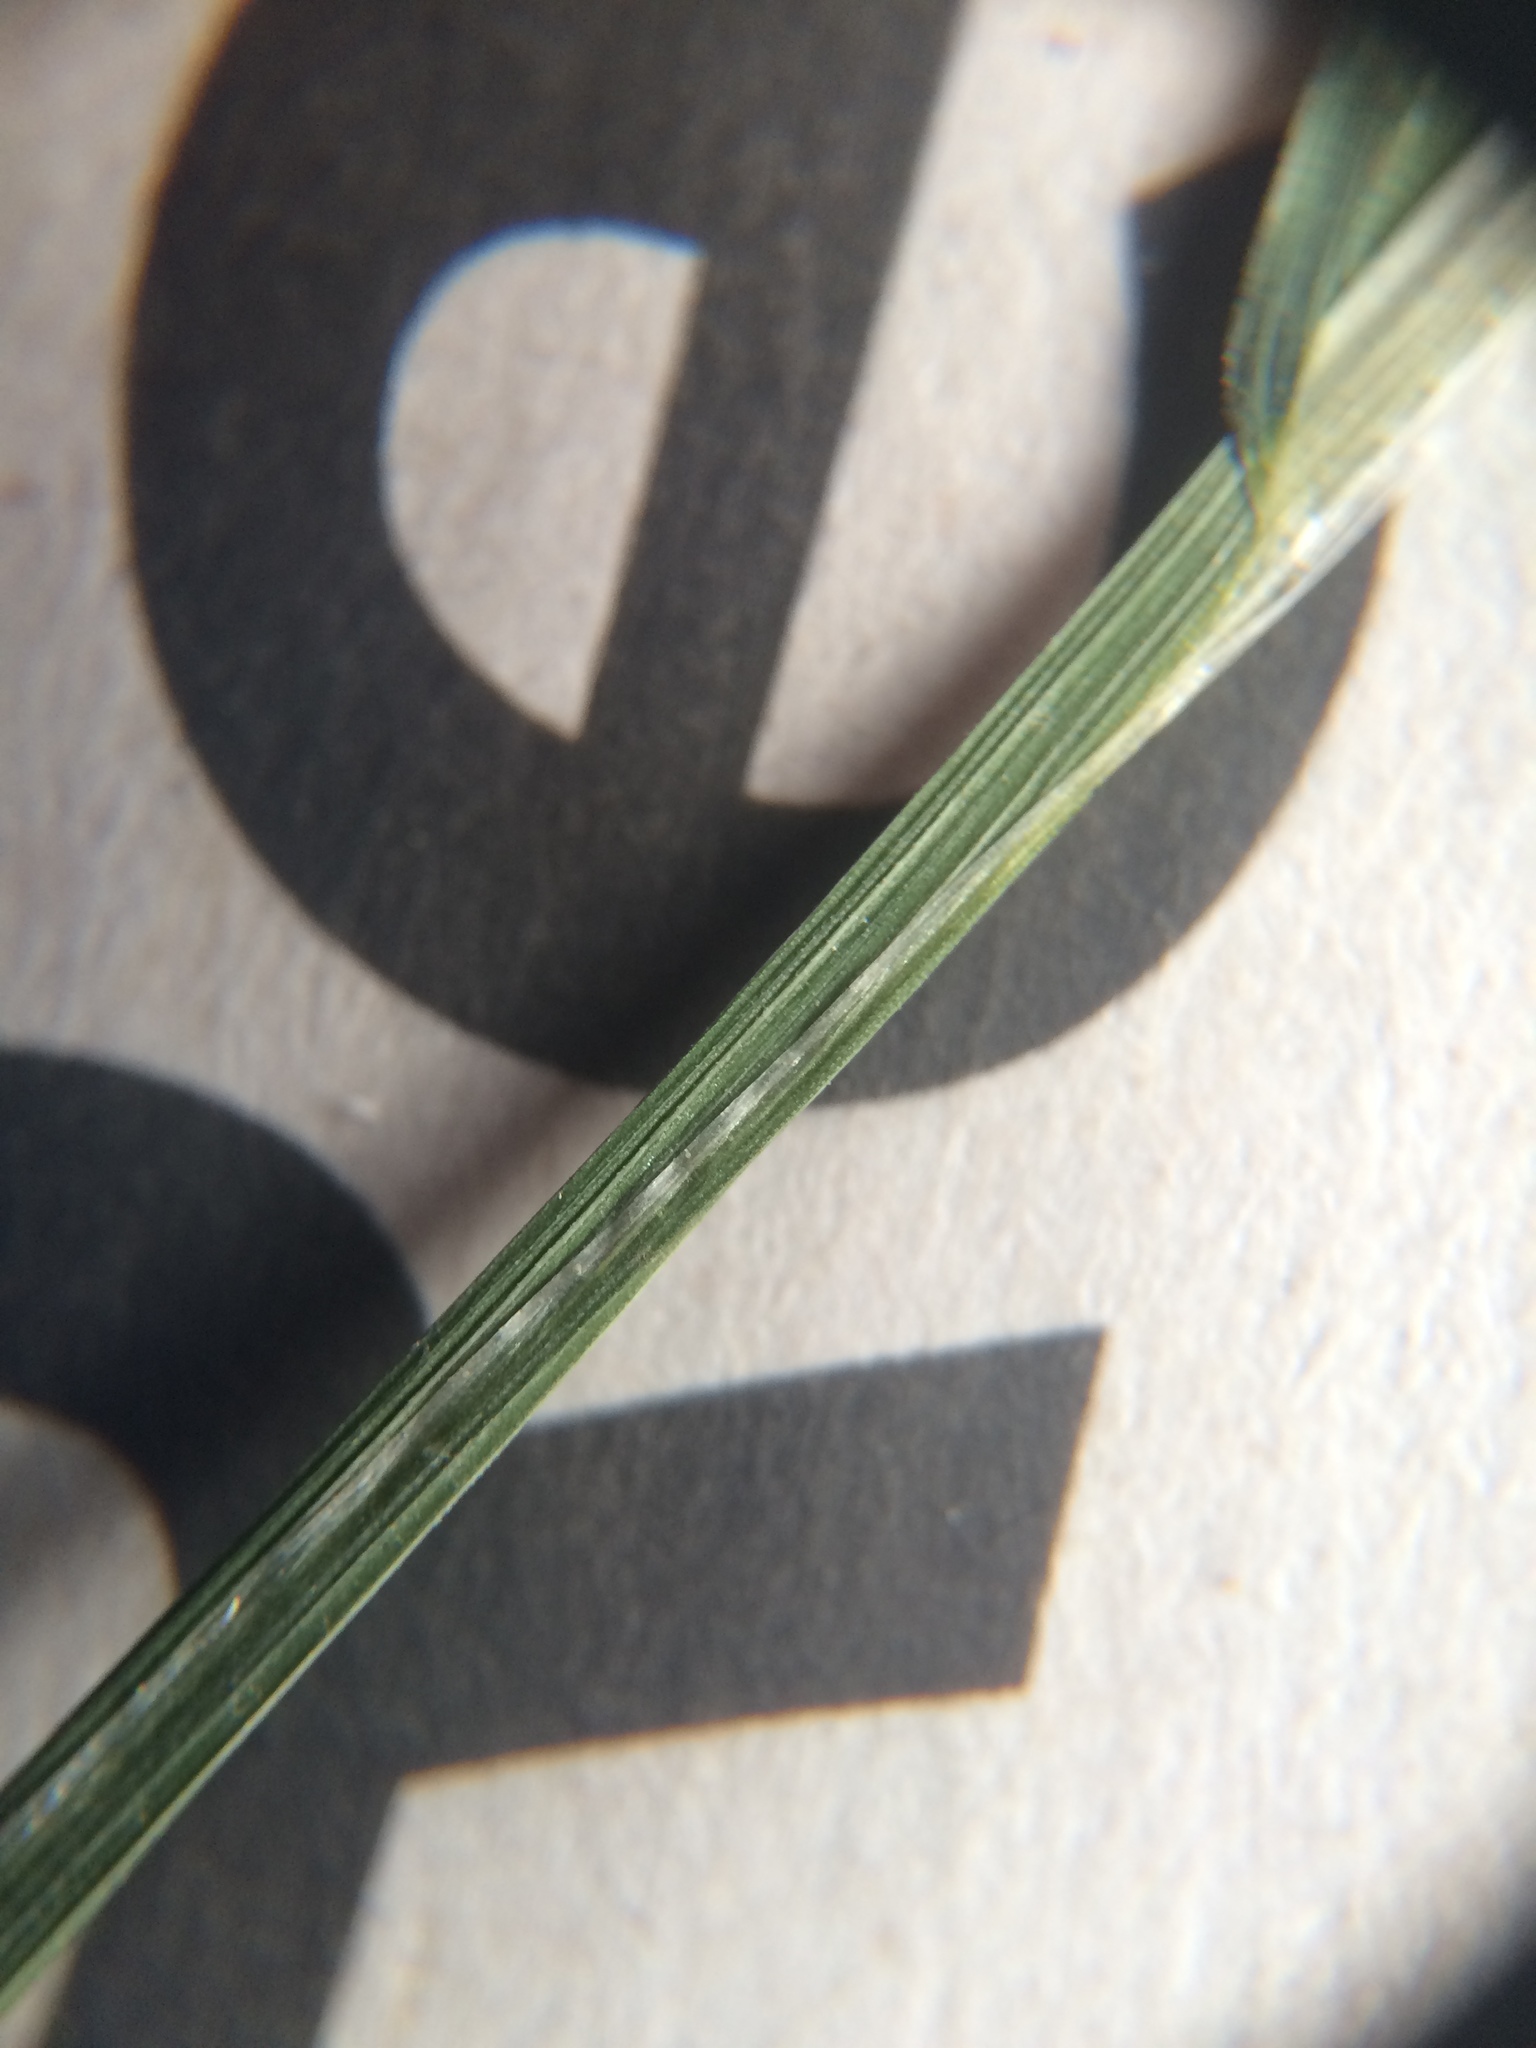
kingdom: Plantae
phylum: Tracheophyta
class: Liliopsida
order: Poales
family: Poaceae
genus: Poa
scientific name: Poa trivialis
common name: Rough bluegrass
